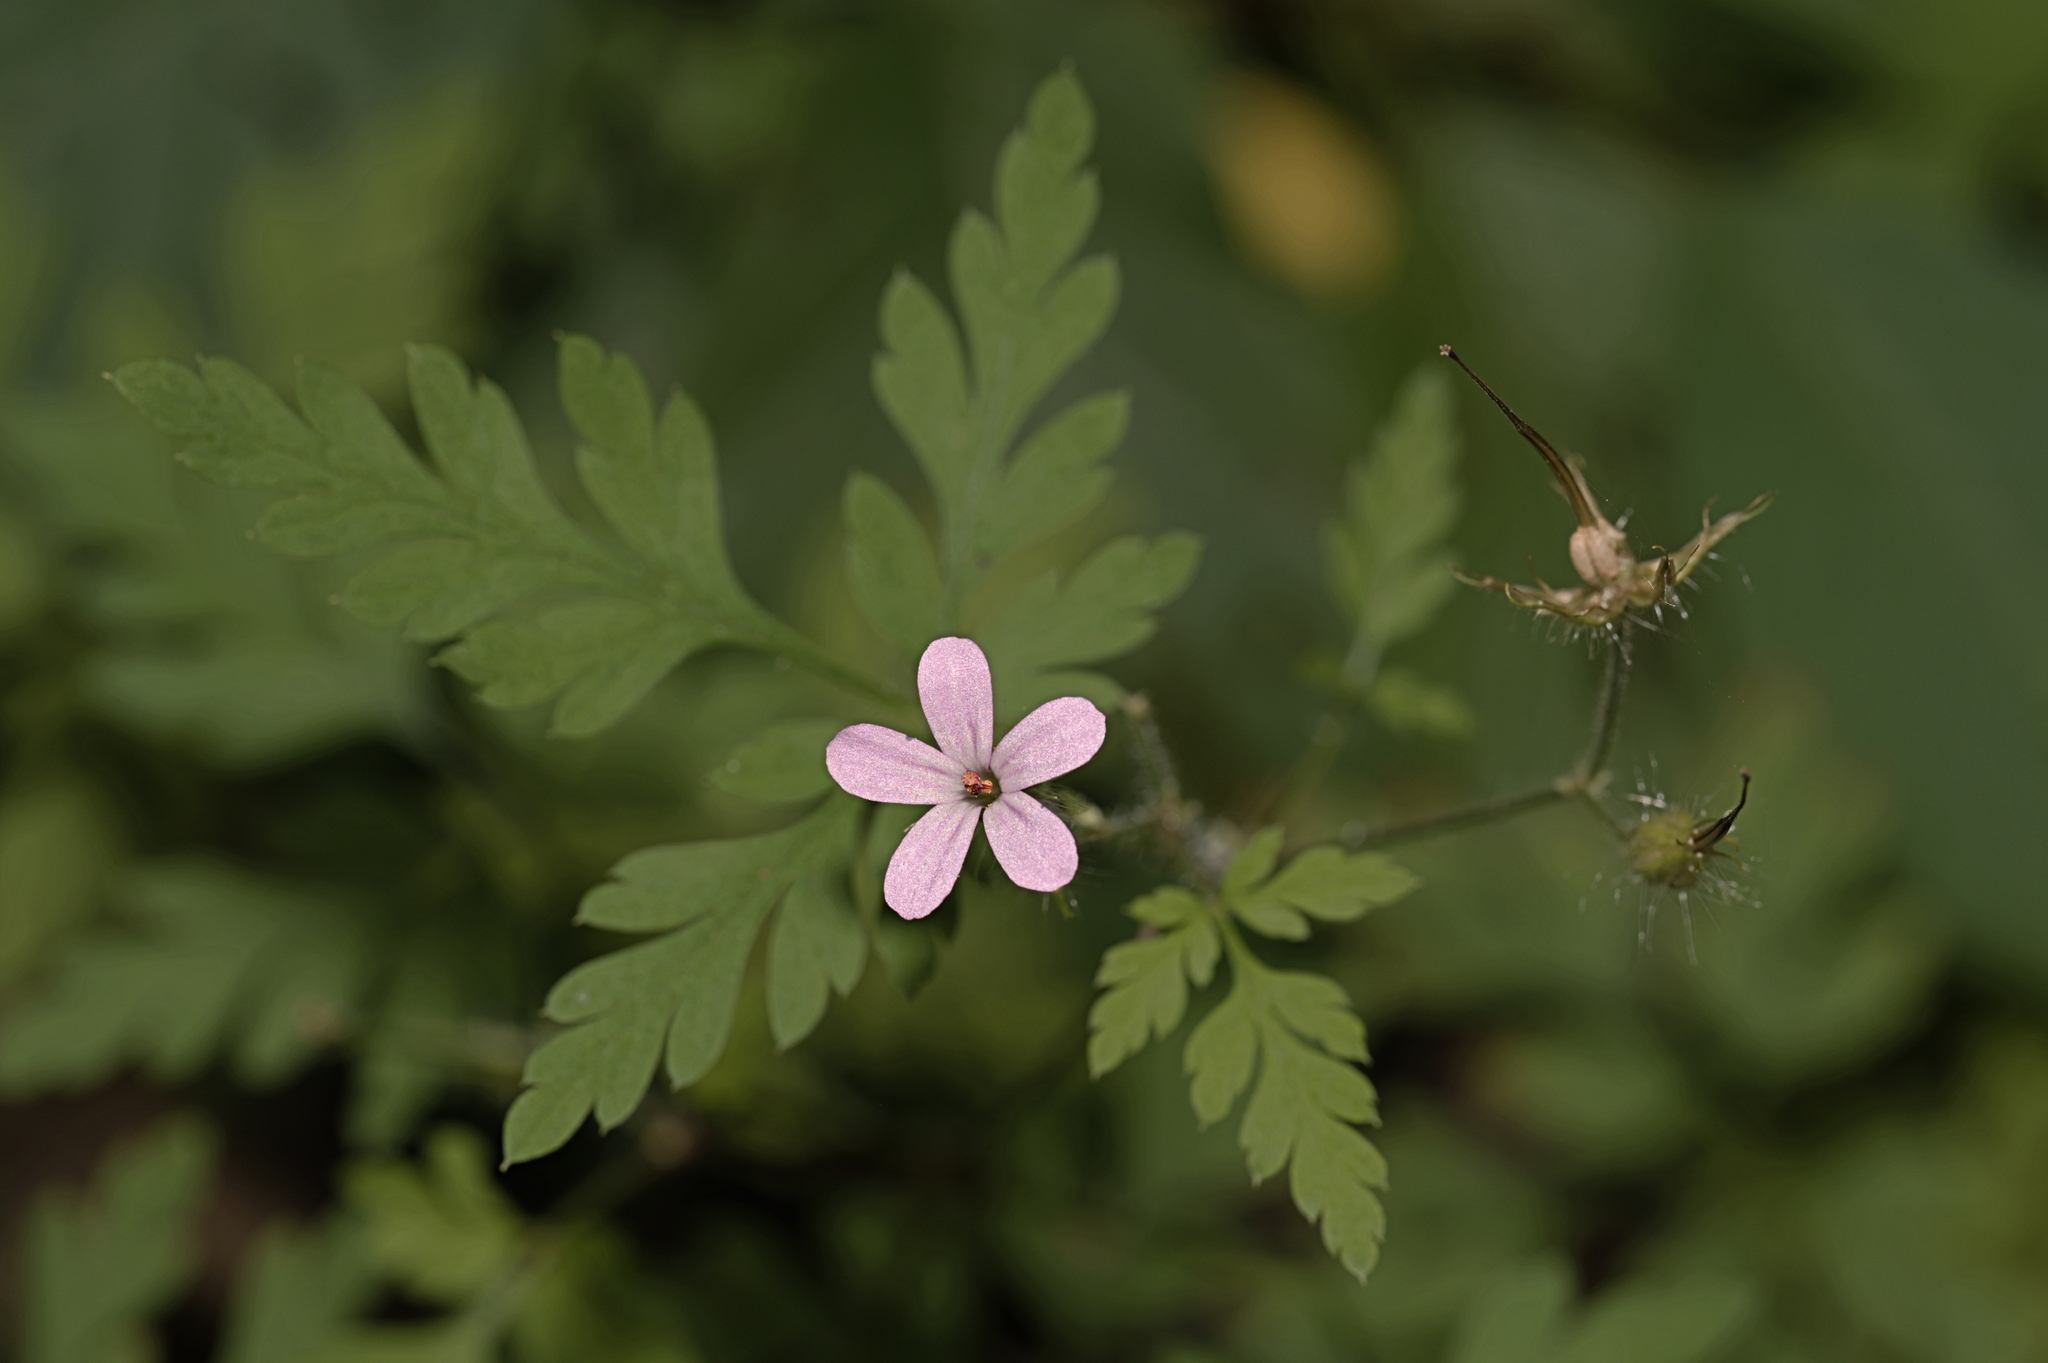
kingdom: Plantae
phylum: Tracheophyta
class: Magnoliopsida
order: Geraniales
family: Geraniaceae
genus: Geranium
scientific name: Geranium robertianum
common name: Herb-robert
